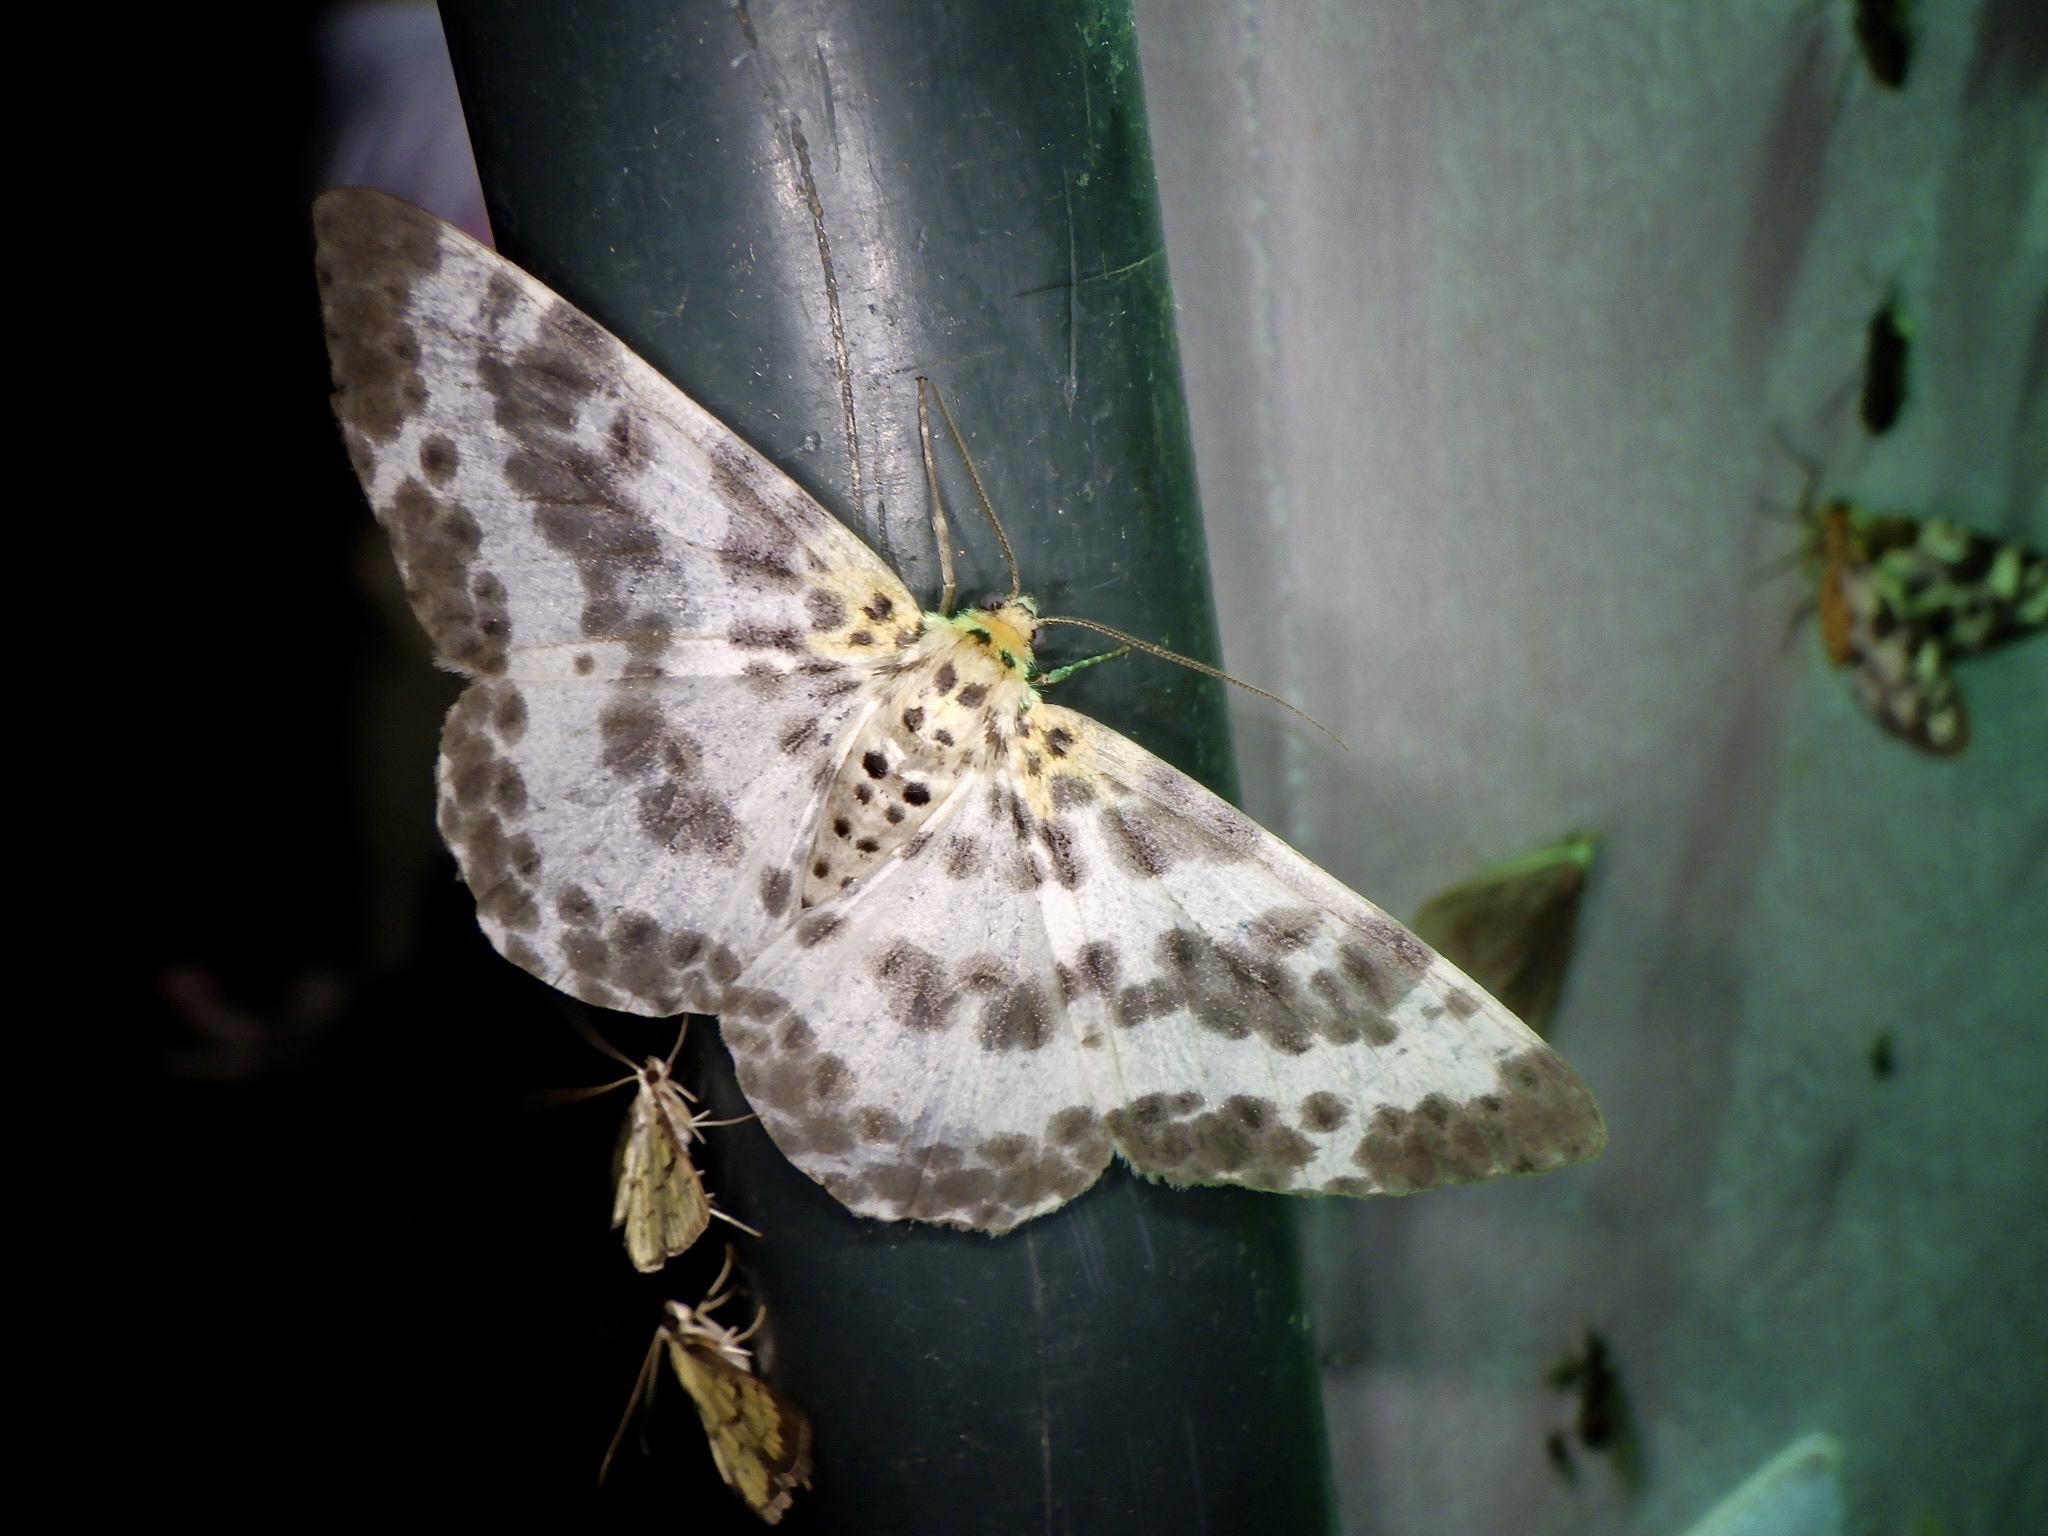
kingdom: Animalia
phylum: Arthropoda
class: Insecta
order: Lepidoptera
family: Geometridae
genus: Metabraxas
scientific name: Metabraxas clerica
